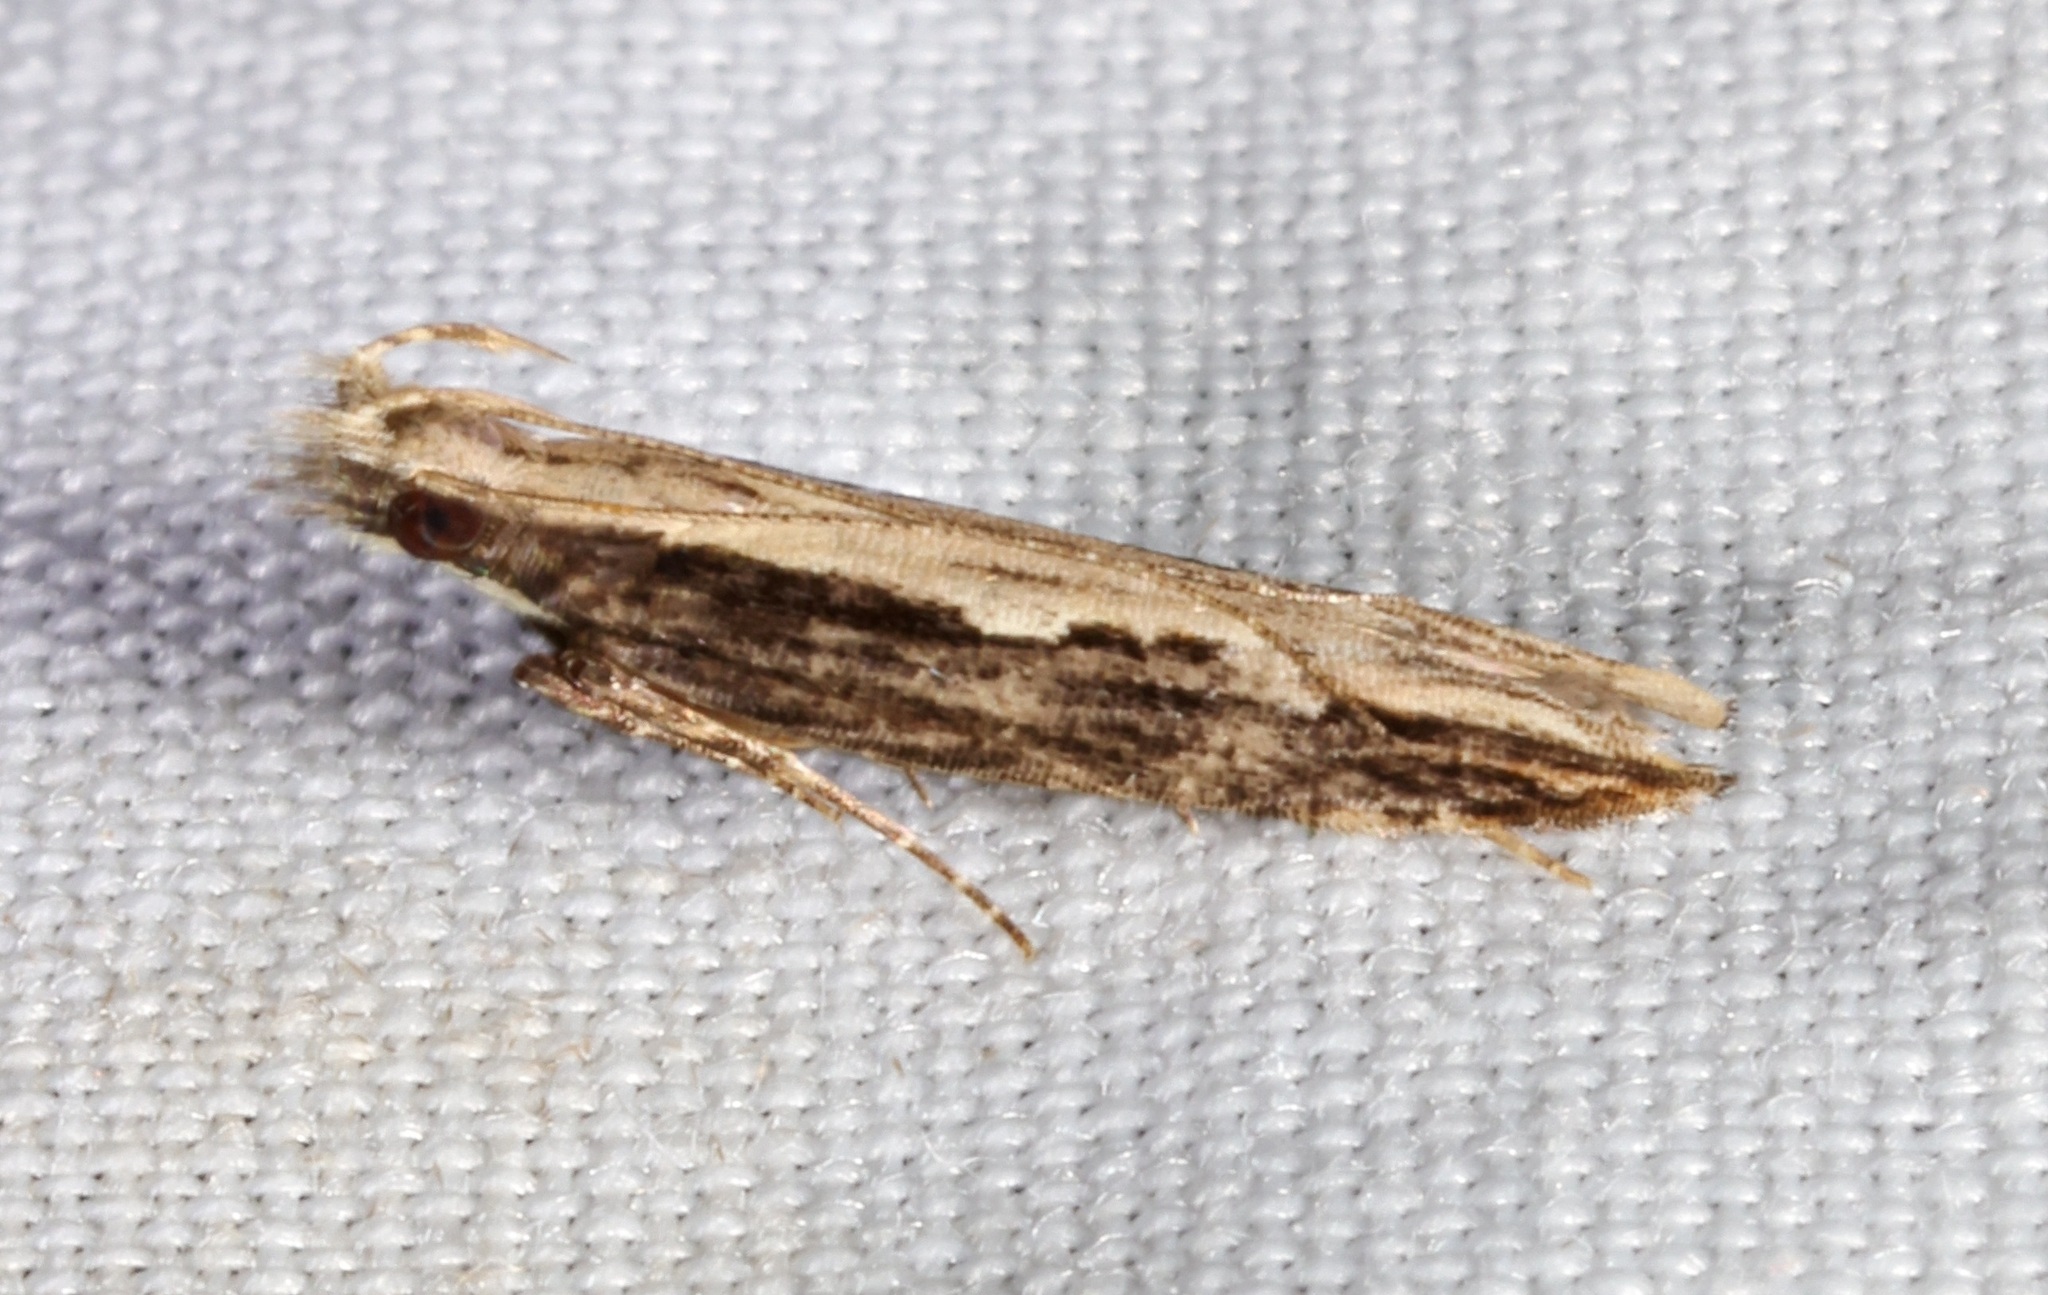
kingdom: Animalia
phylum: Arthropoda
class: Insecta
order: Lepidoptera
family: Gelechiidae
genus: Hypatima
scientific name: Hypatima spathota
